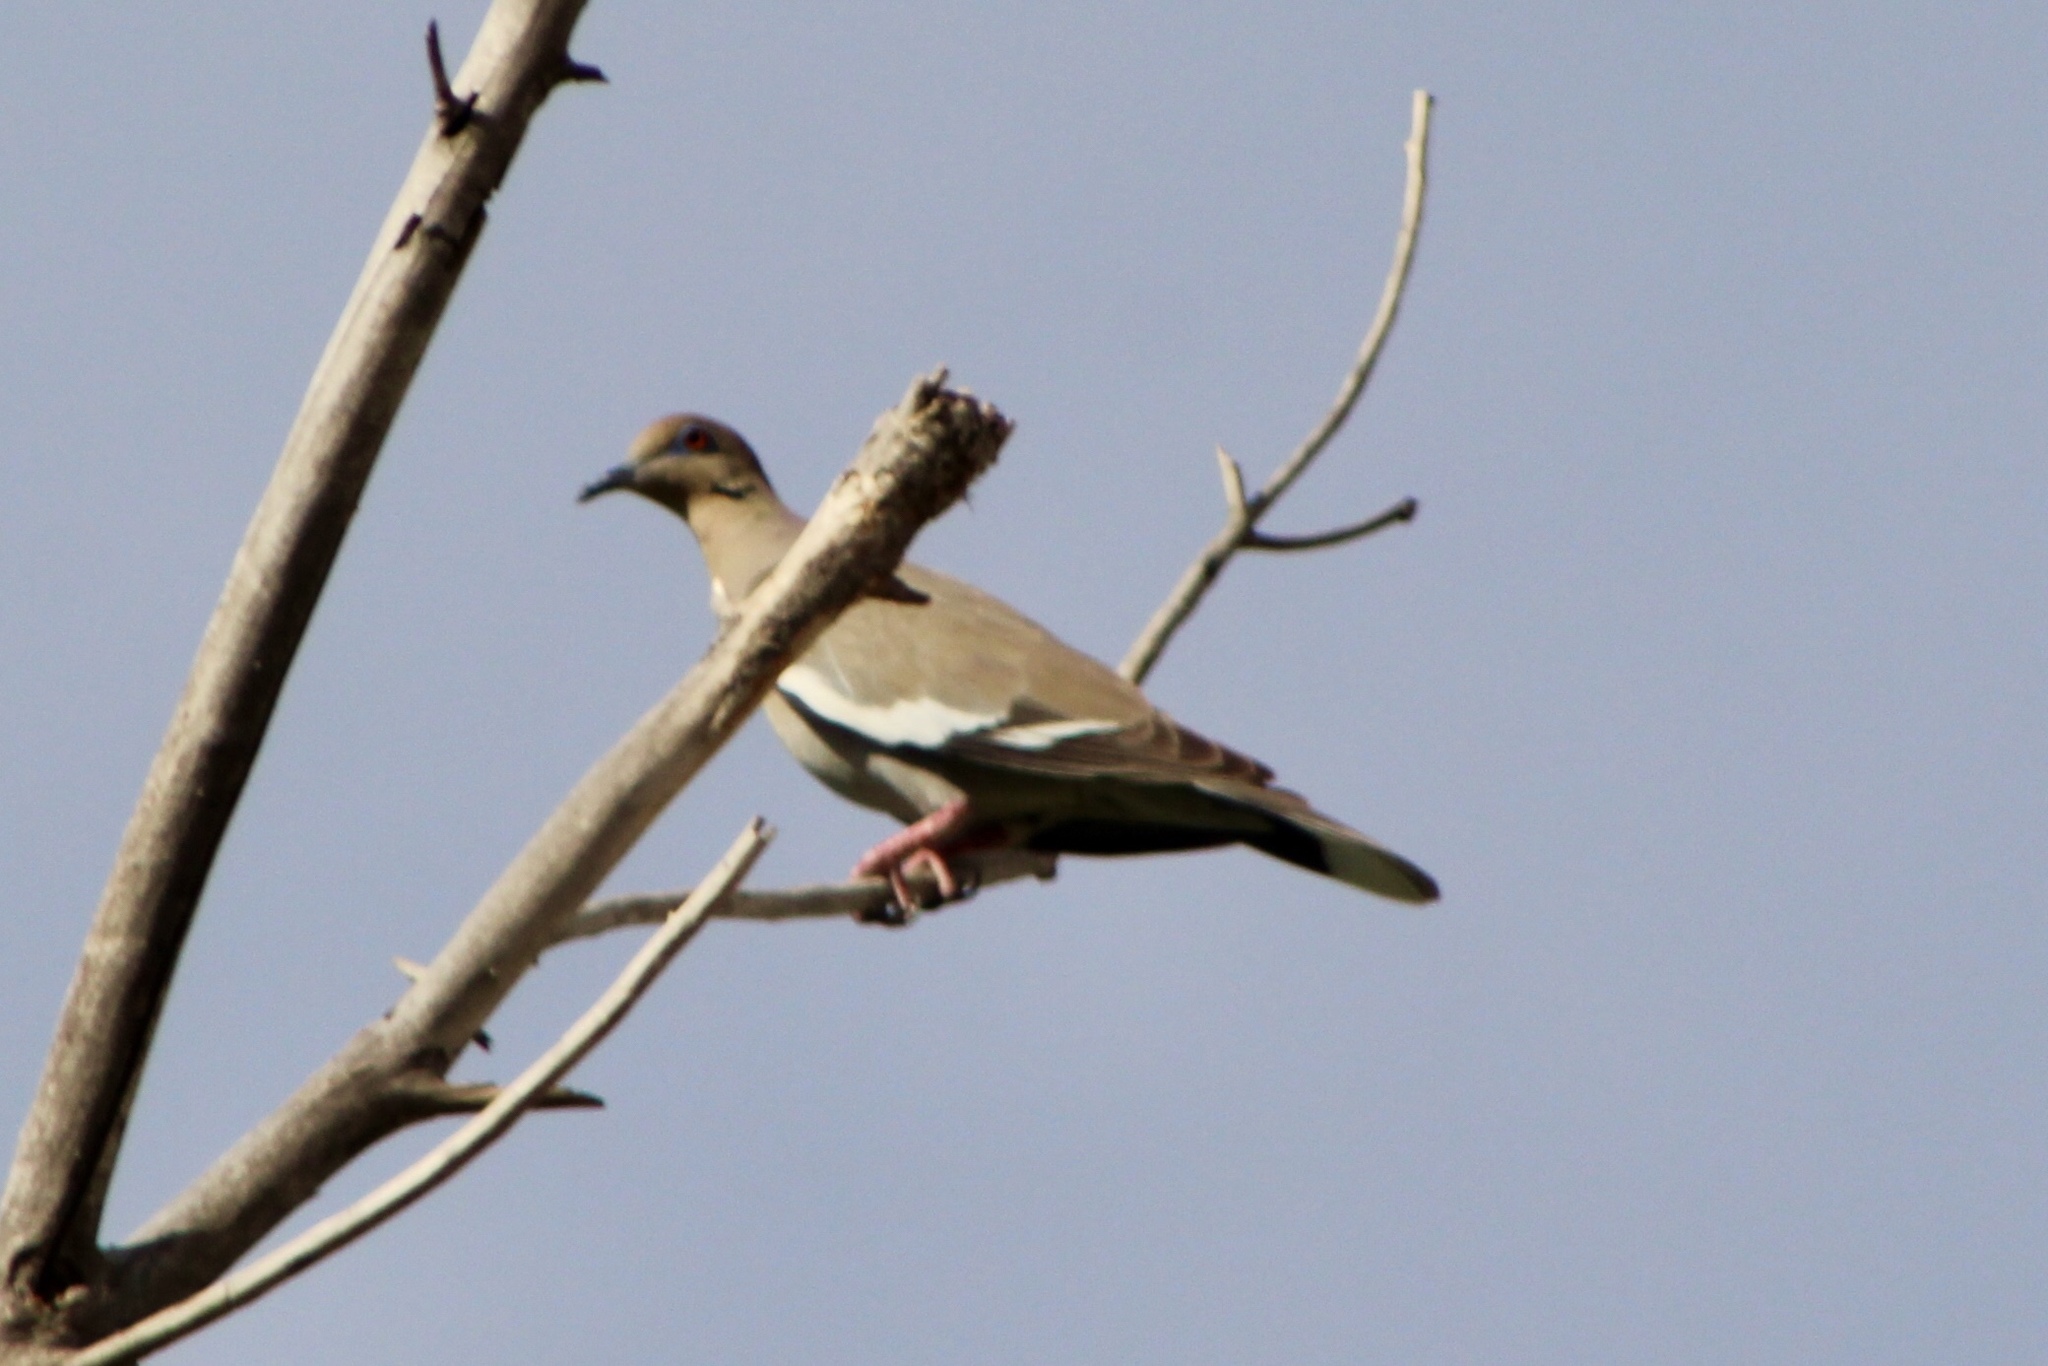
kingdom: Animalia
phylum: Chordata
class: Aves
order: Columbiformes
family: Columbidae
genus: Zenaida
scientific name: Zenaida asiatica
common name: White-winged dove
